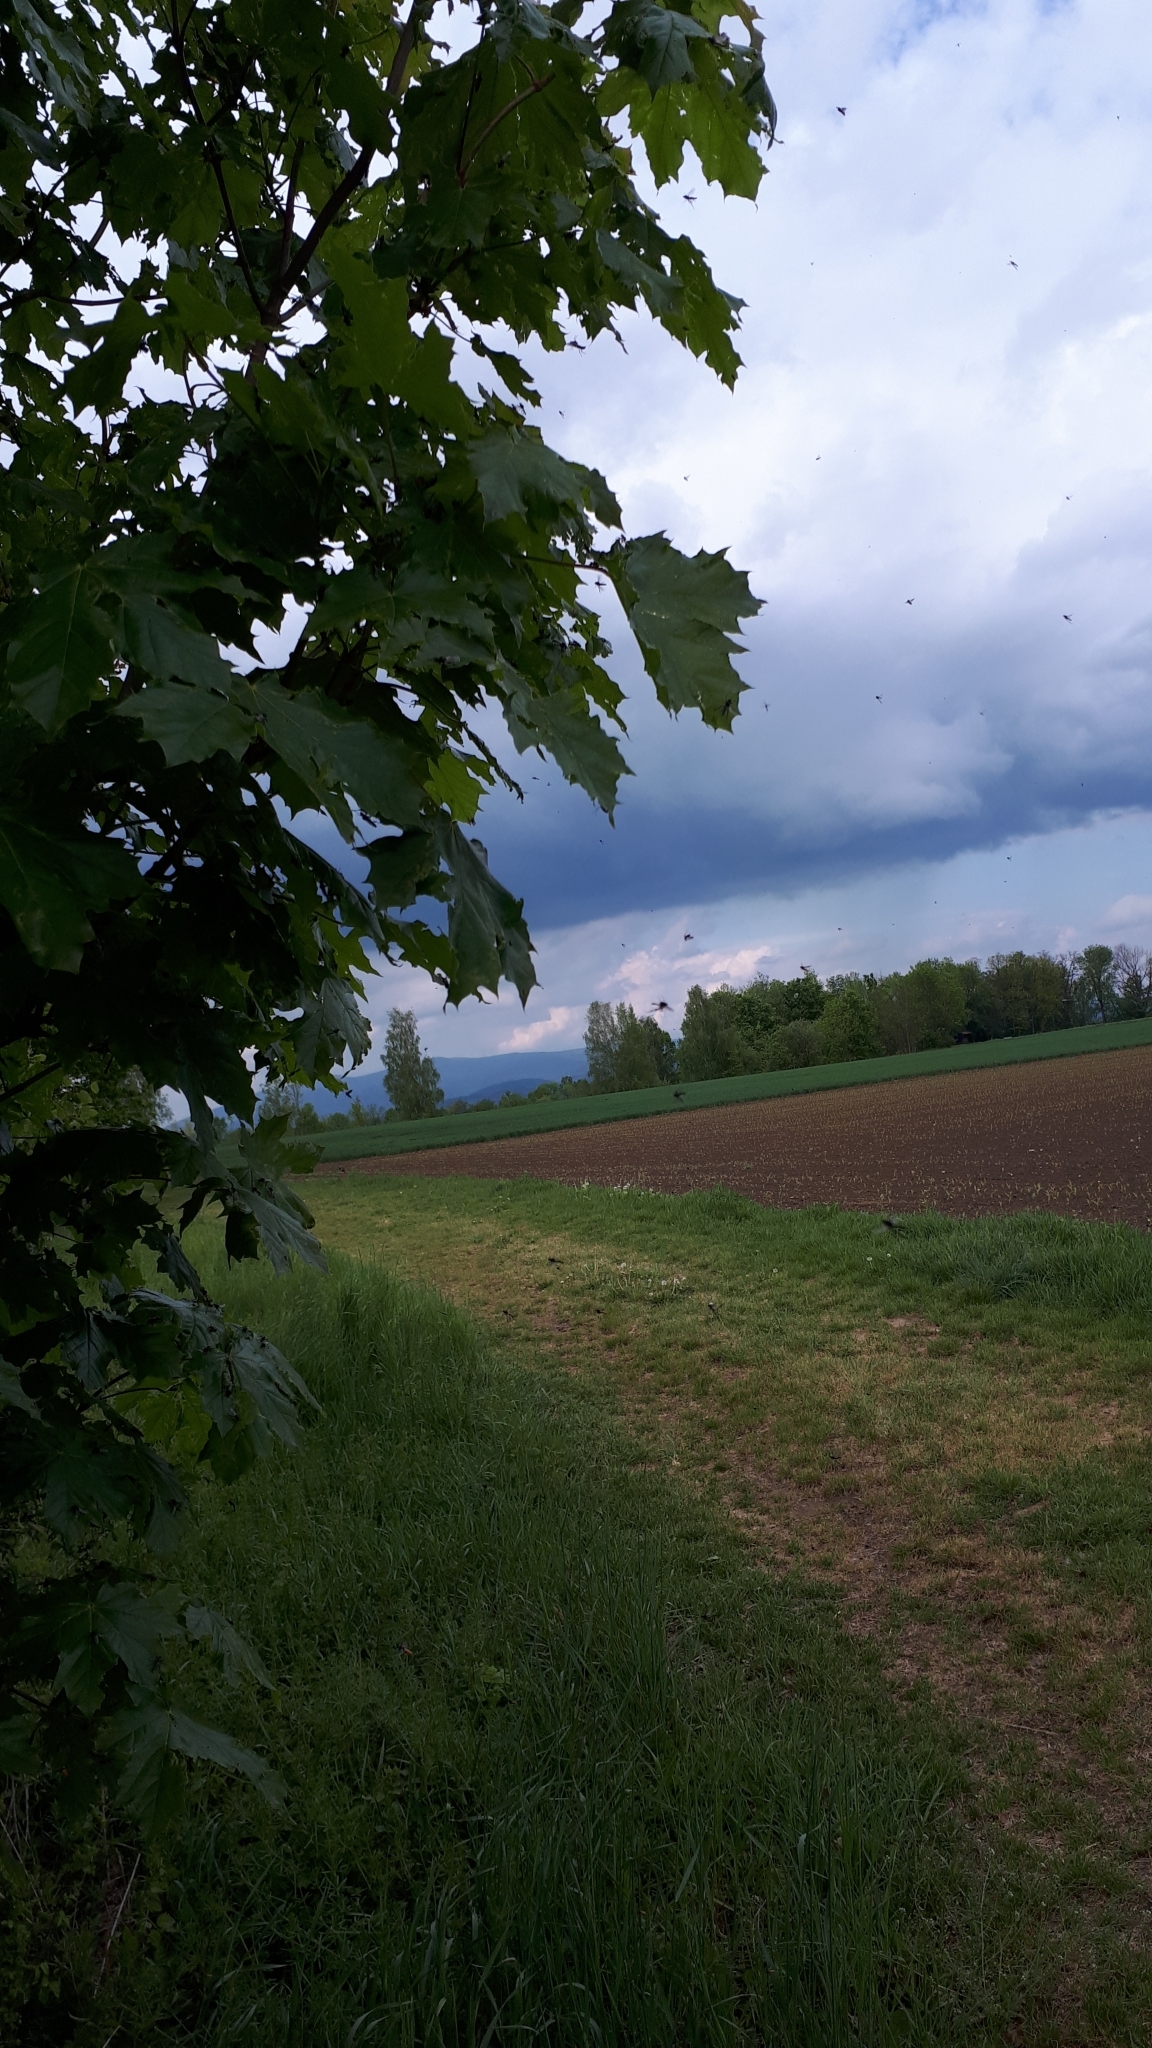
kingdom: Animalia
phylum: Arthropoda
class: Insecta
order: Diptera
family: Bibionidae
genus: Bibio
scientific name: Bibio hortulanus
